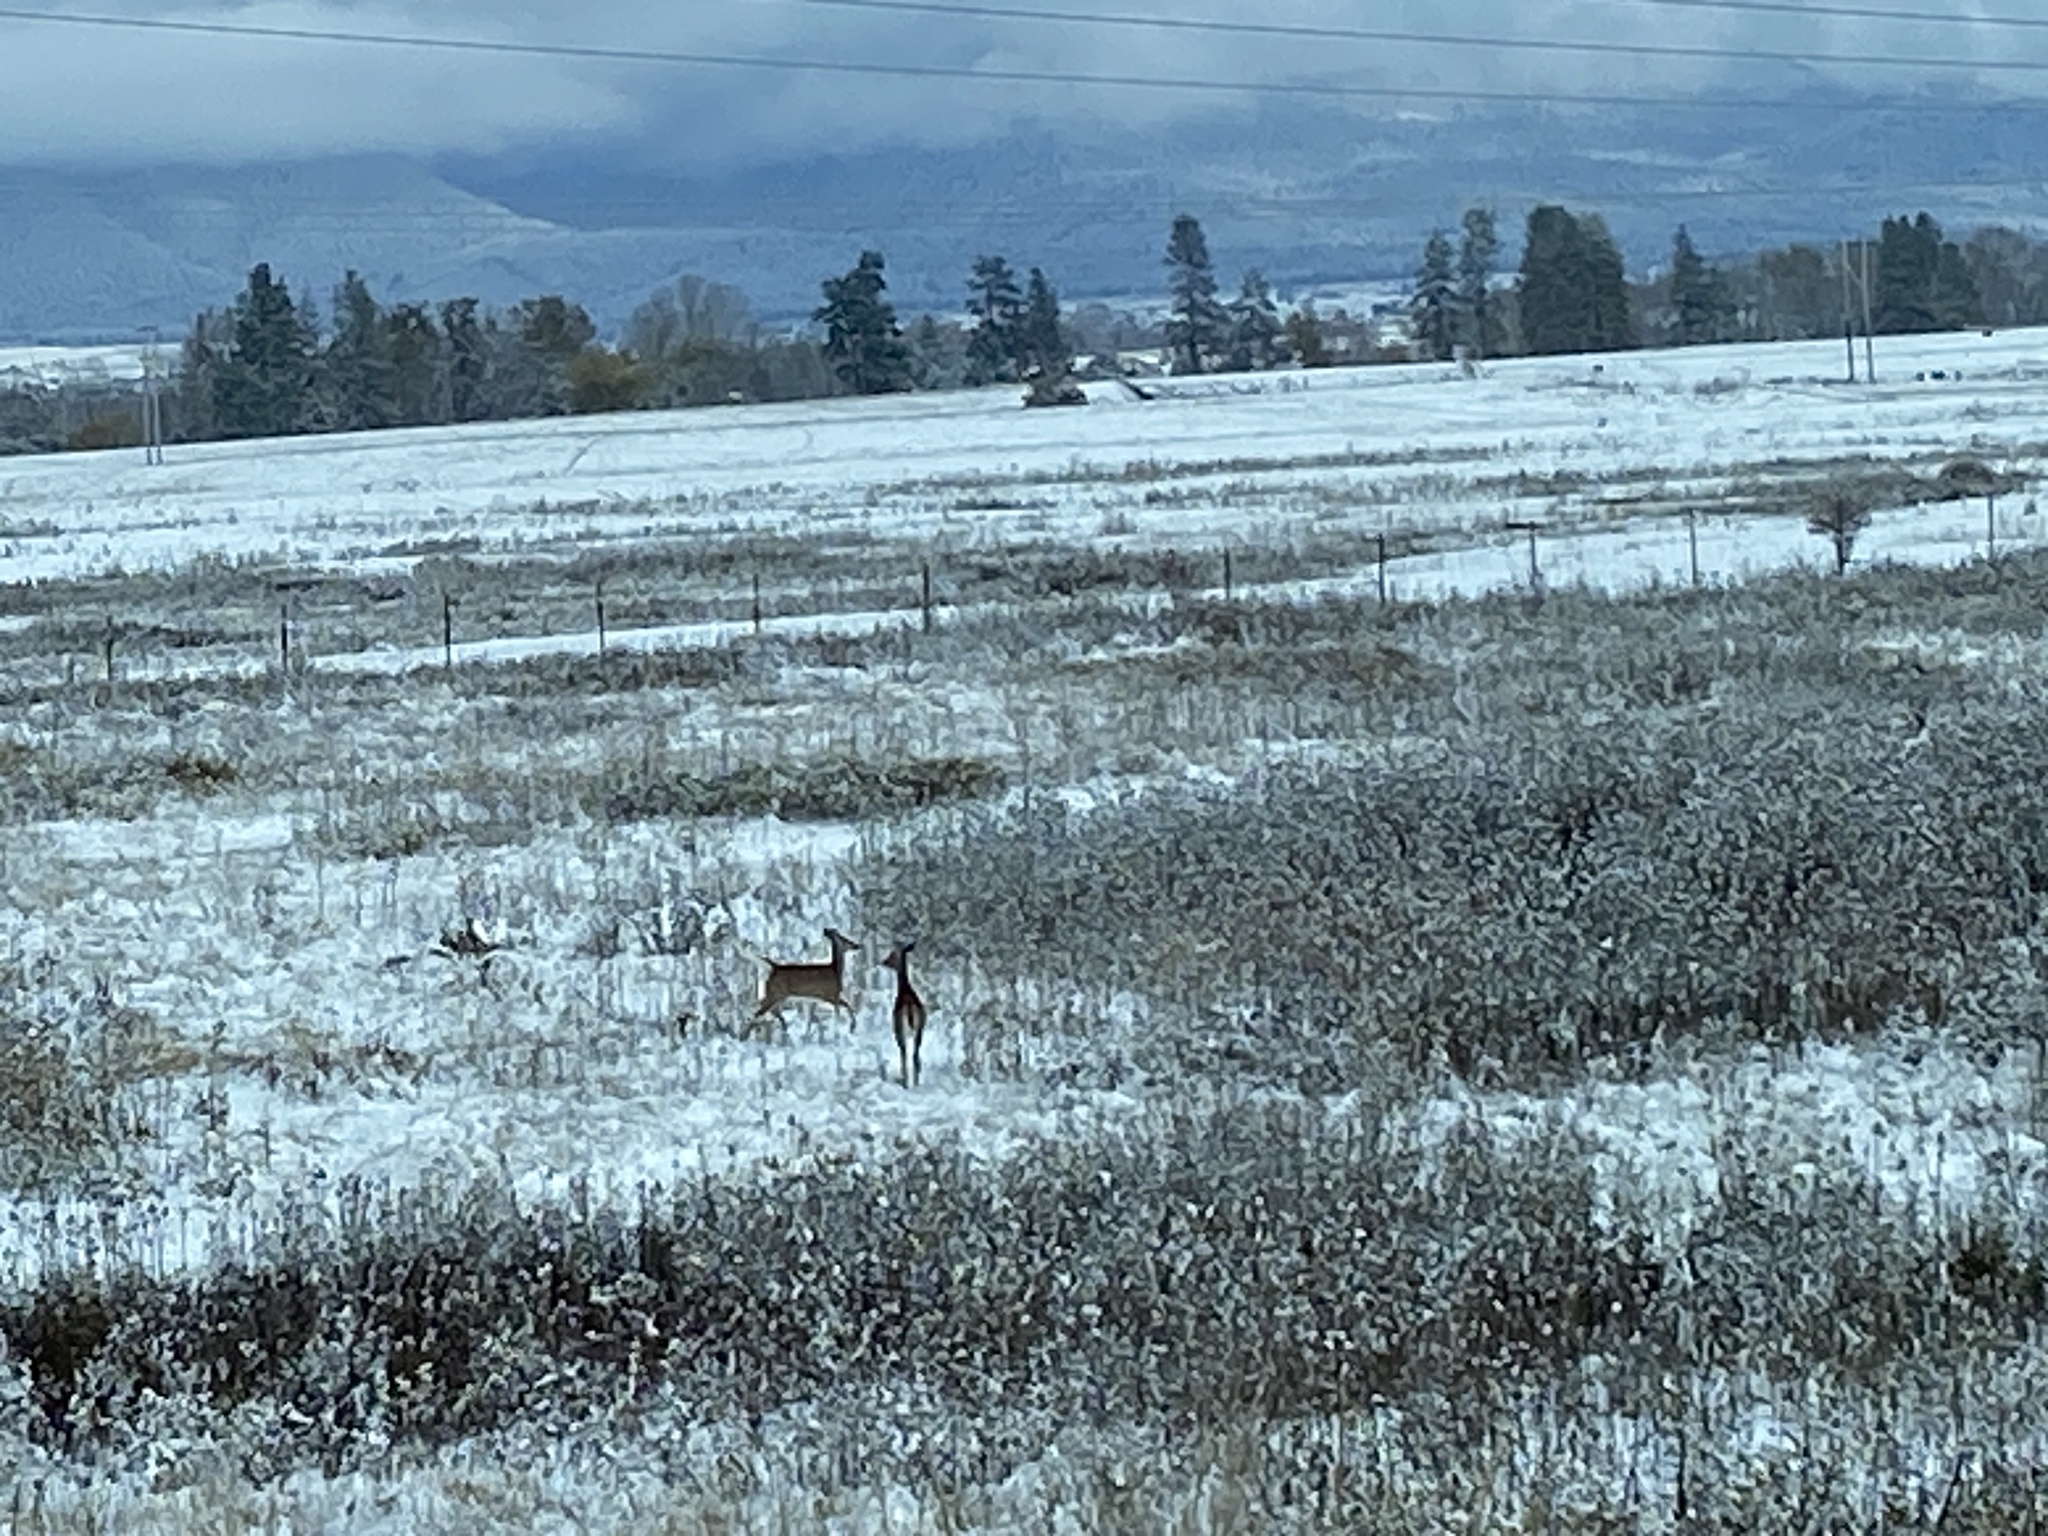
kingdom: Animalia
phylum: Chordata
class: Mammalia
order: Artiodactyla
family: Cervidae
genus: Odocoileus
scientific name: Odocoileus virginianus
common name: White-tailed deer
